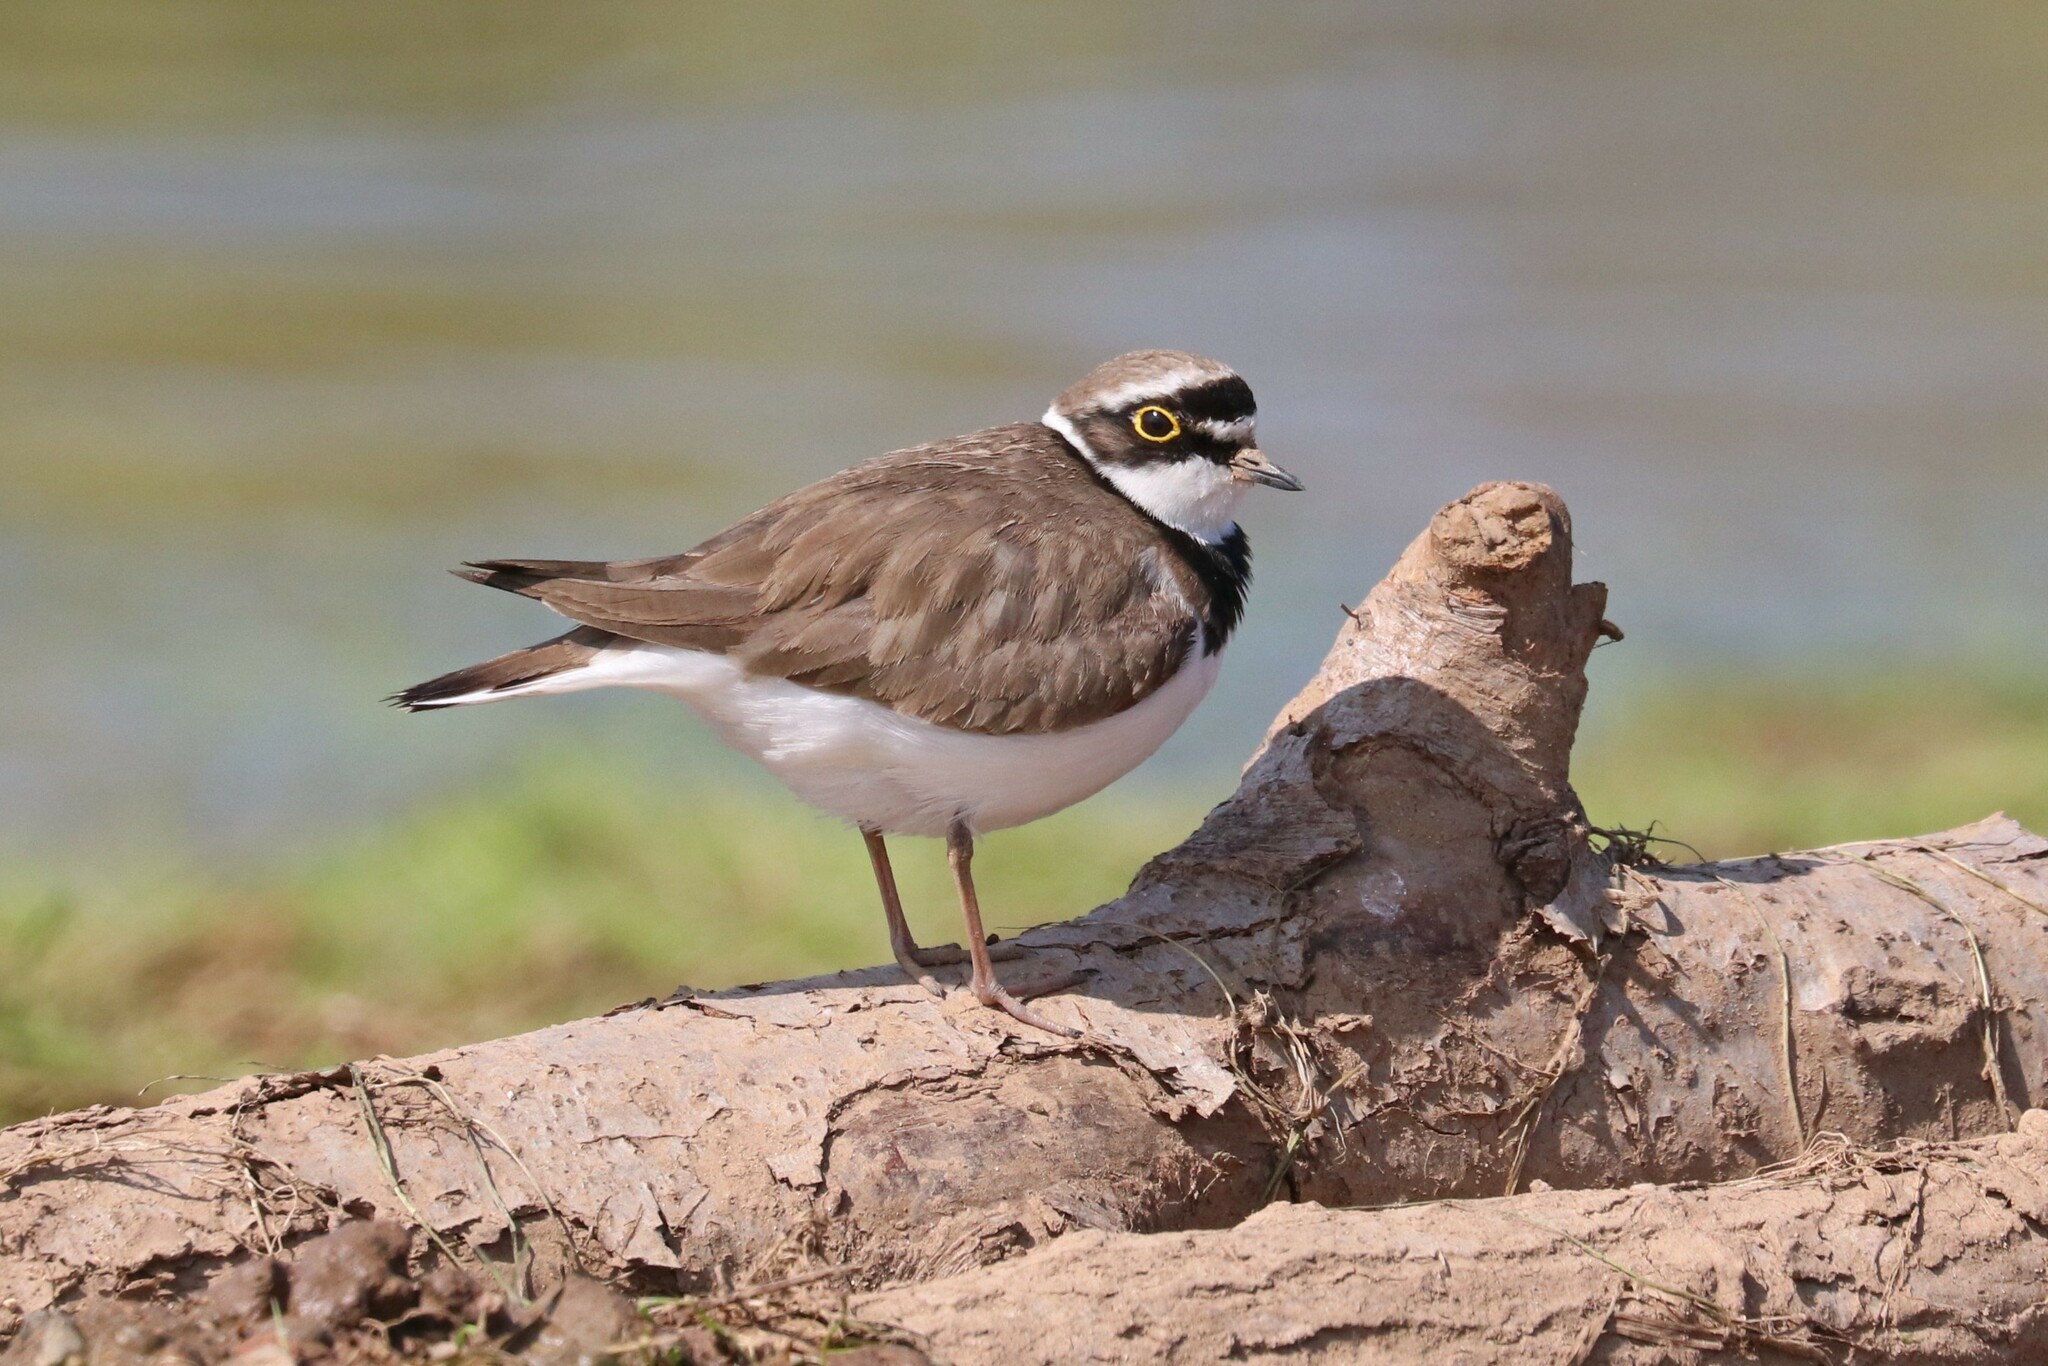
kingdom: Animalia
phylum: Chordata
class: Aves
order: Charadriiformes
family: Charadriidae
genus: Charadrius
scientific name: Charadrius dubius
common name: Little ringed plover
